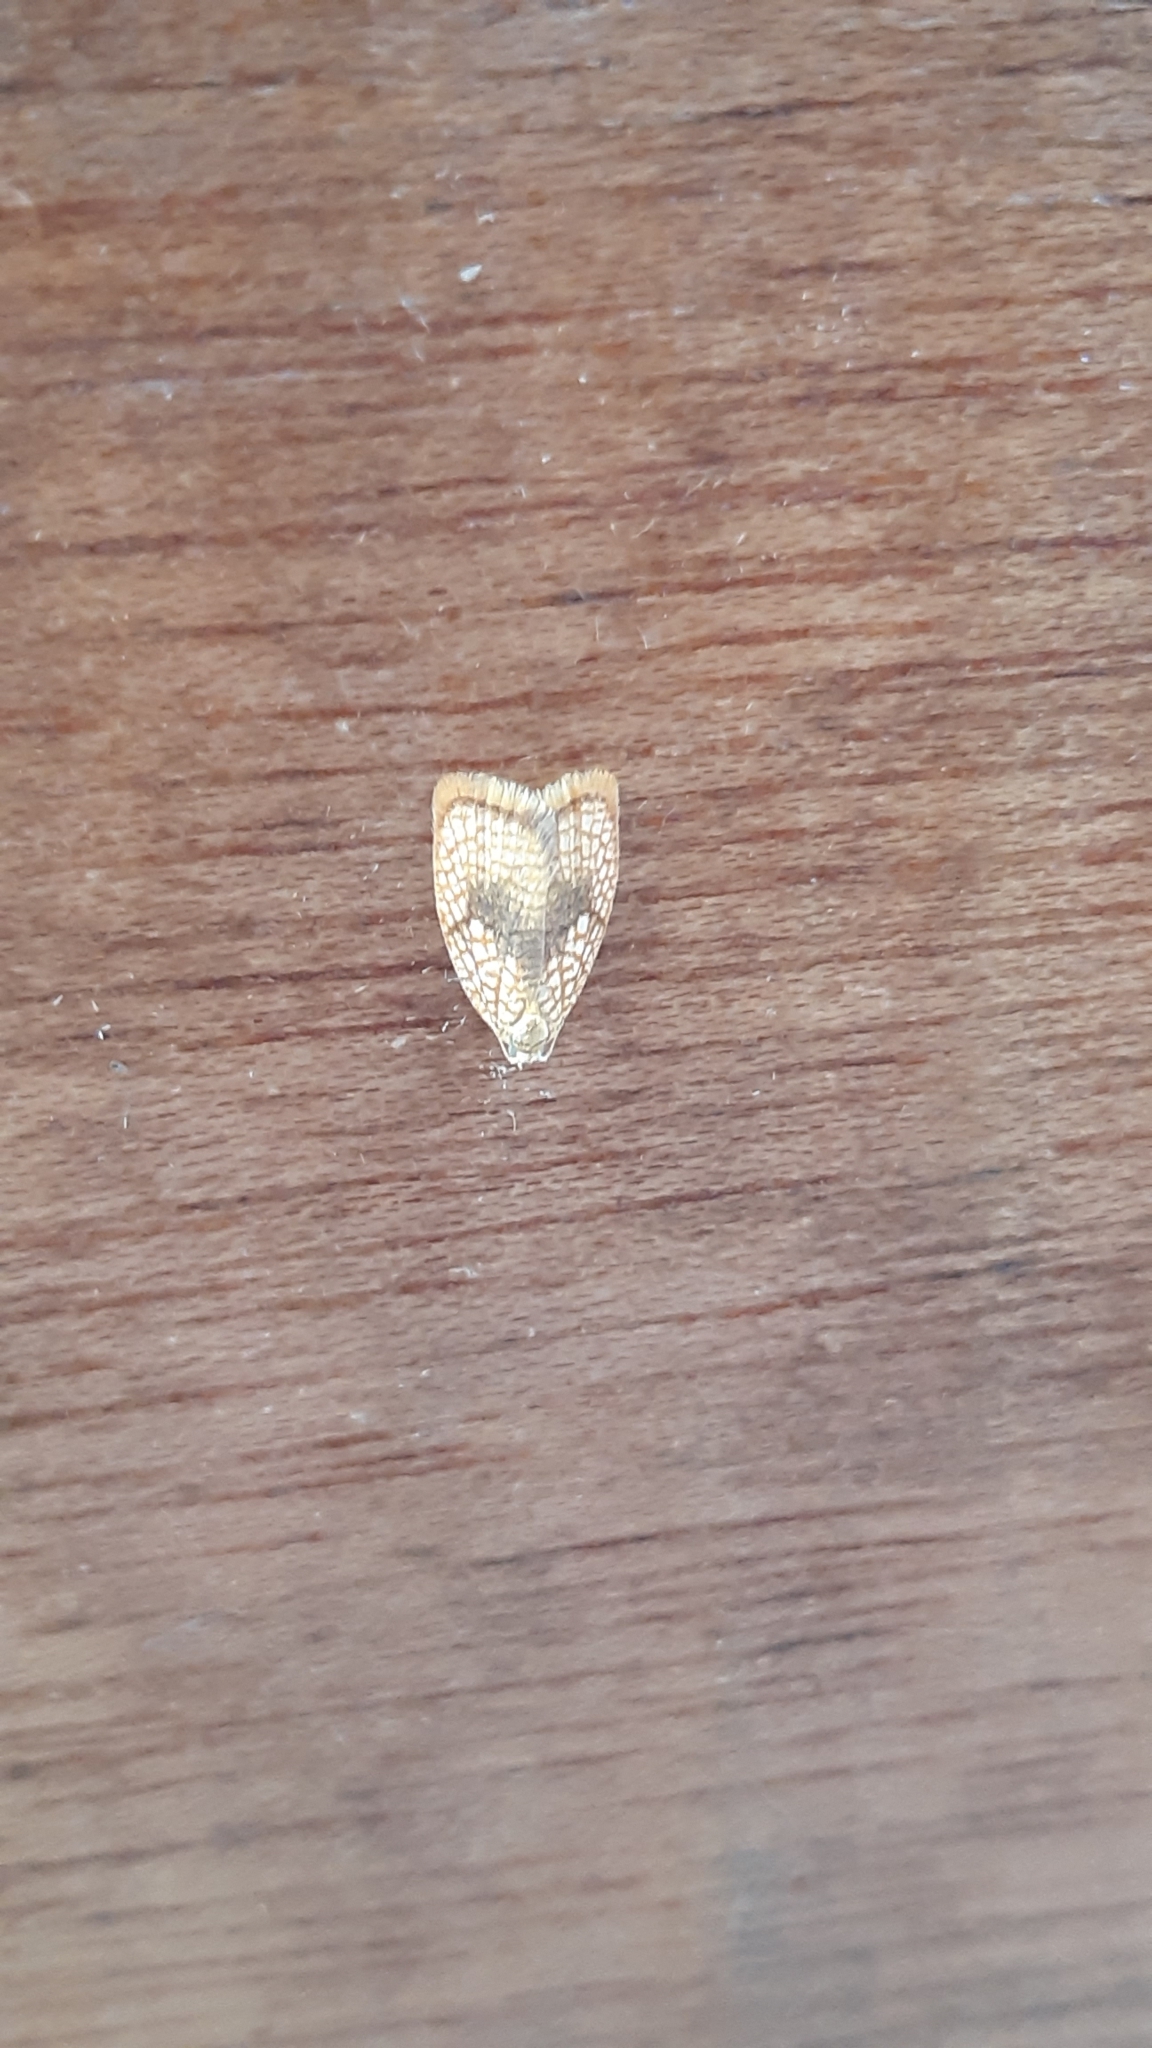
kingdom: Animalia
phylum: Arthropoda
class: Insecta
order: Lepidoptera
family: Tortricidae
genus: Acleris
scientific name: Acleris forsskaleana
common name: Maple button
